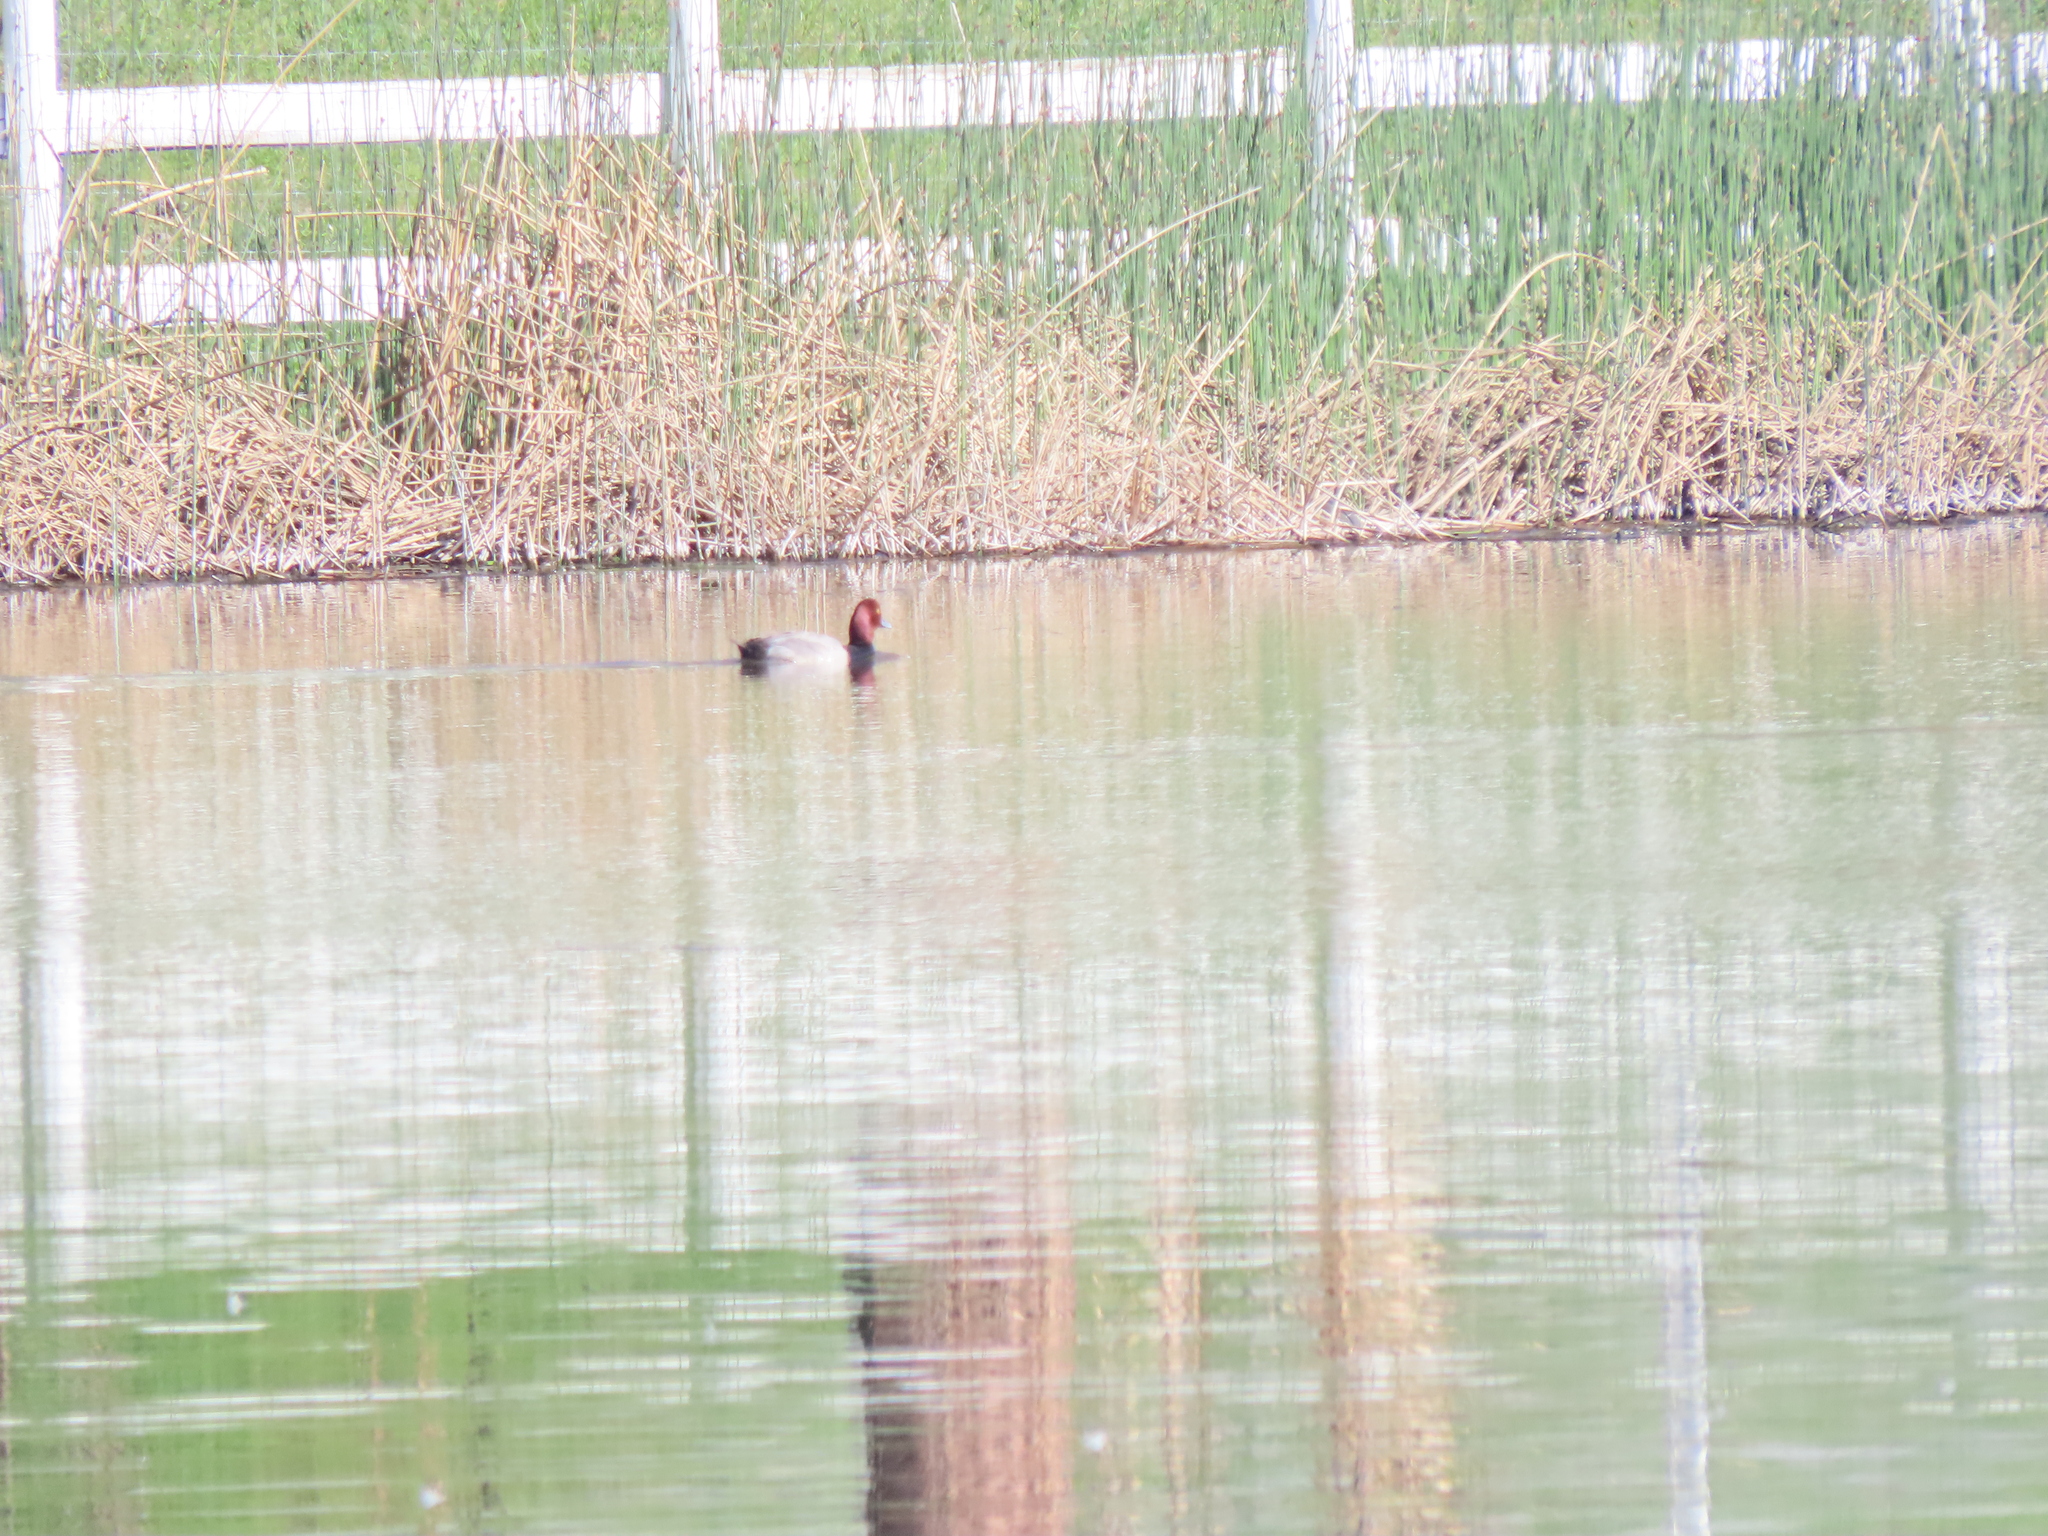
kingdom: Animalia
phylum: Chordata
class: Aves
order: Anseriformes
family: Anatidae
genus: Aythya
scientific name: Aythya americana
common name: Redhead
